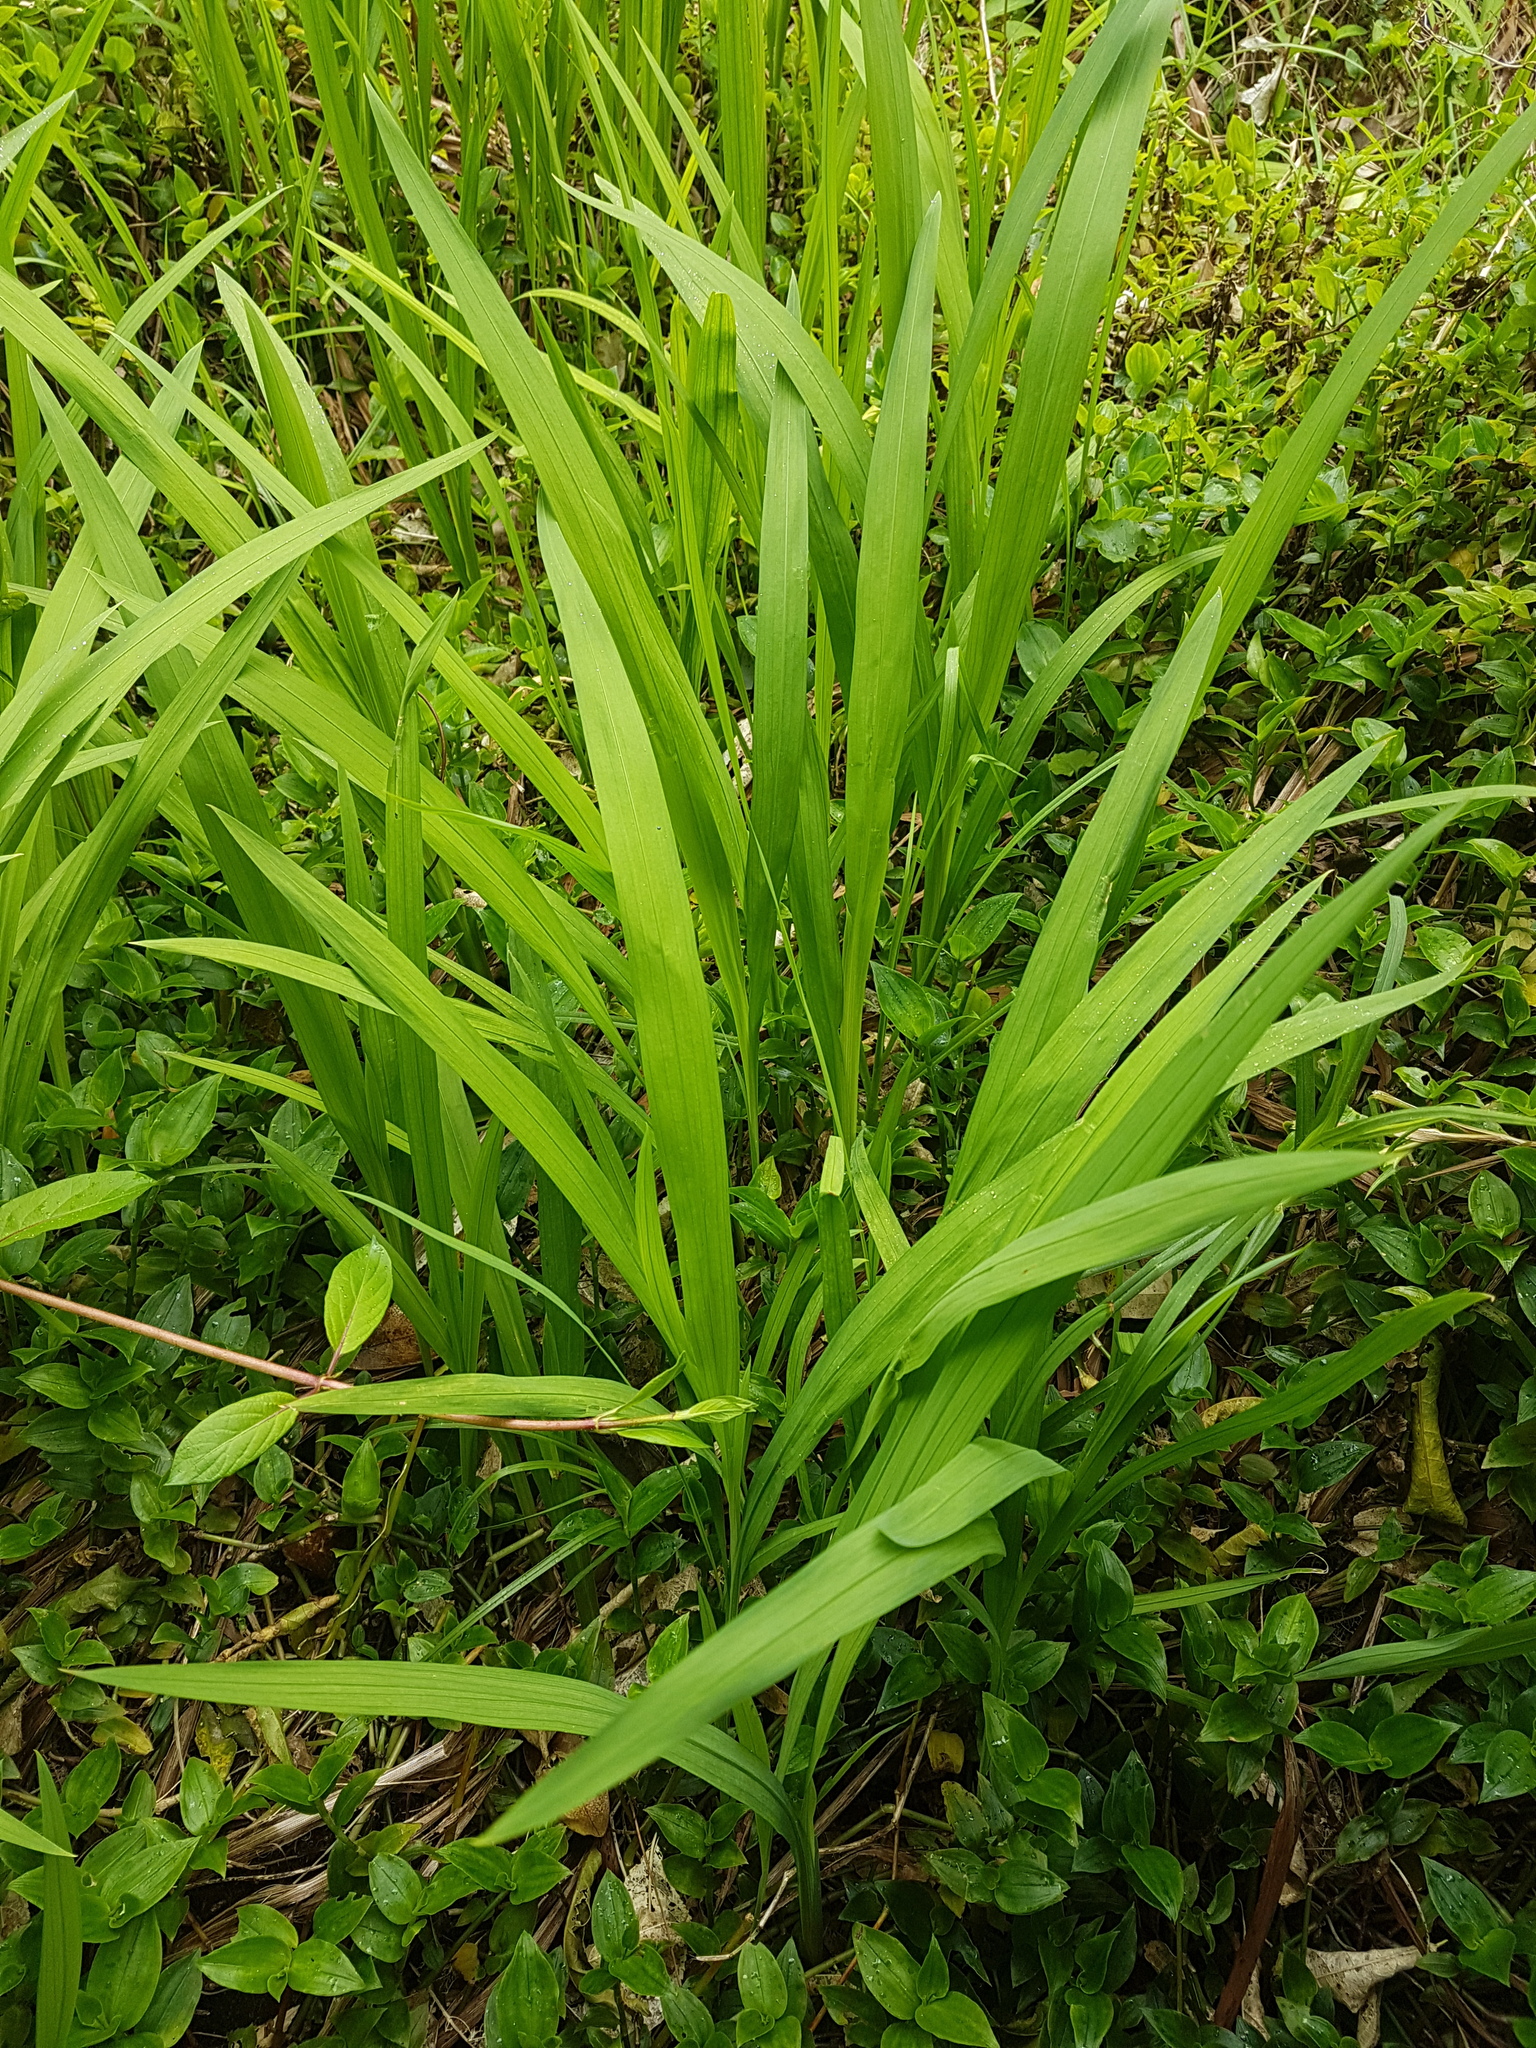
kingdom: Plantae
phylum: Tracheophyta
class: Liliopsida
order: Asparagales
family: Iridaceae
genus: Crocosmia
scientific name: Crocosmia crocosmiiflora
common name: Montbretia
